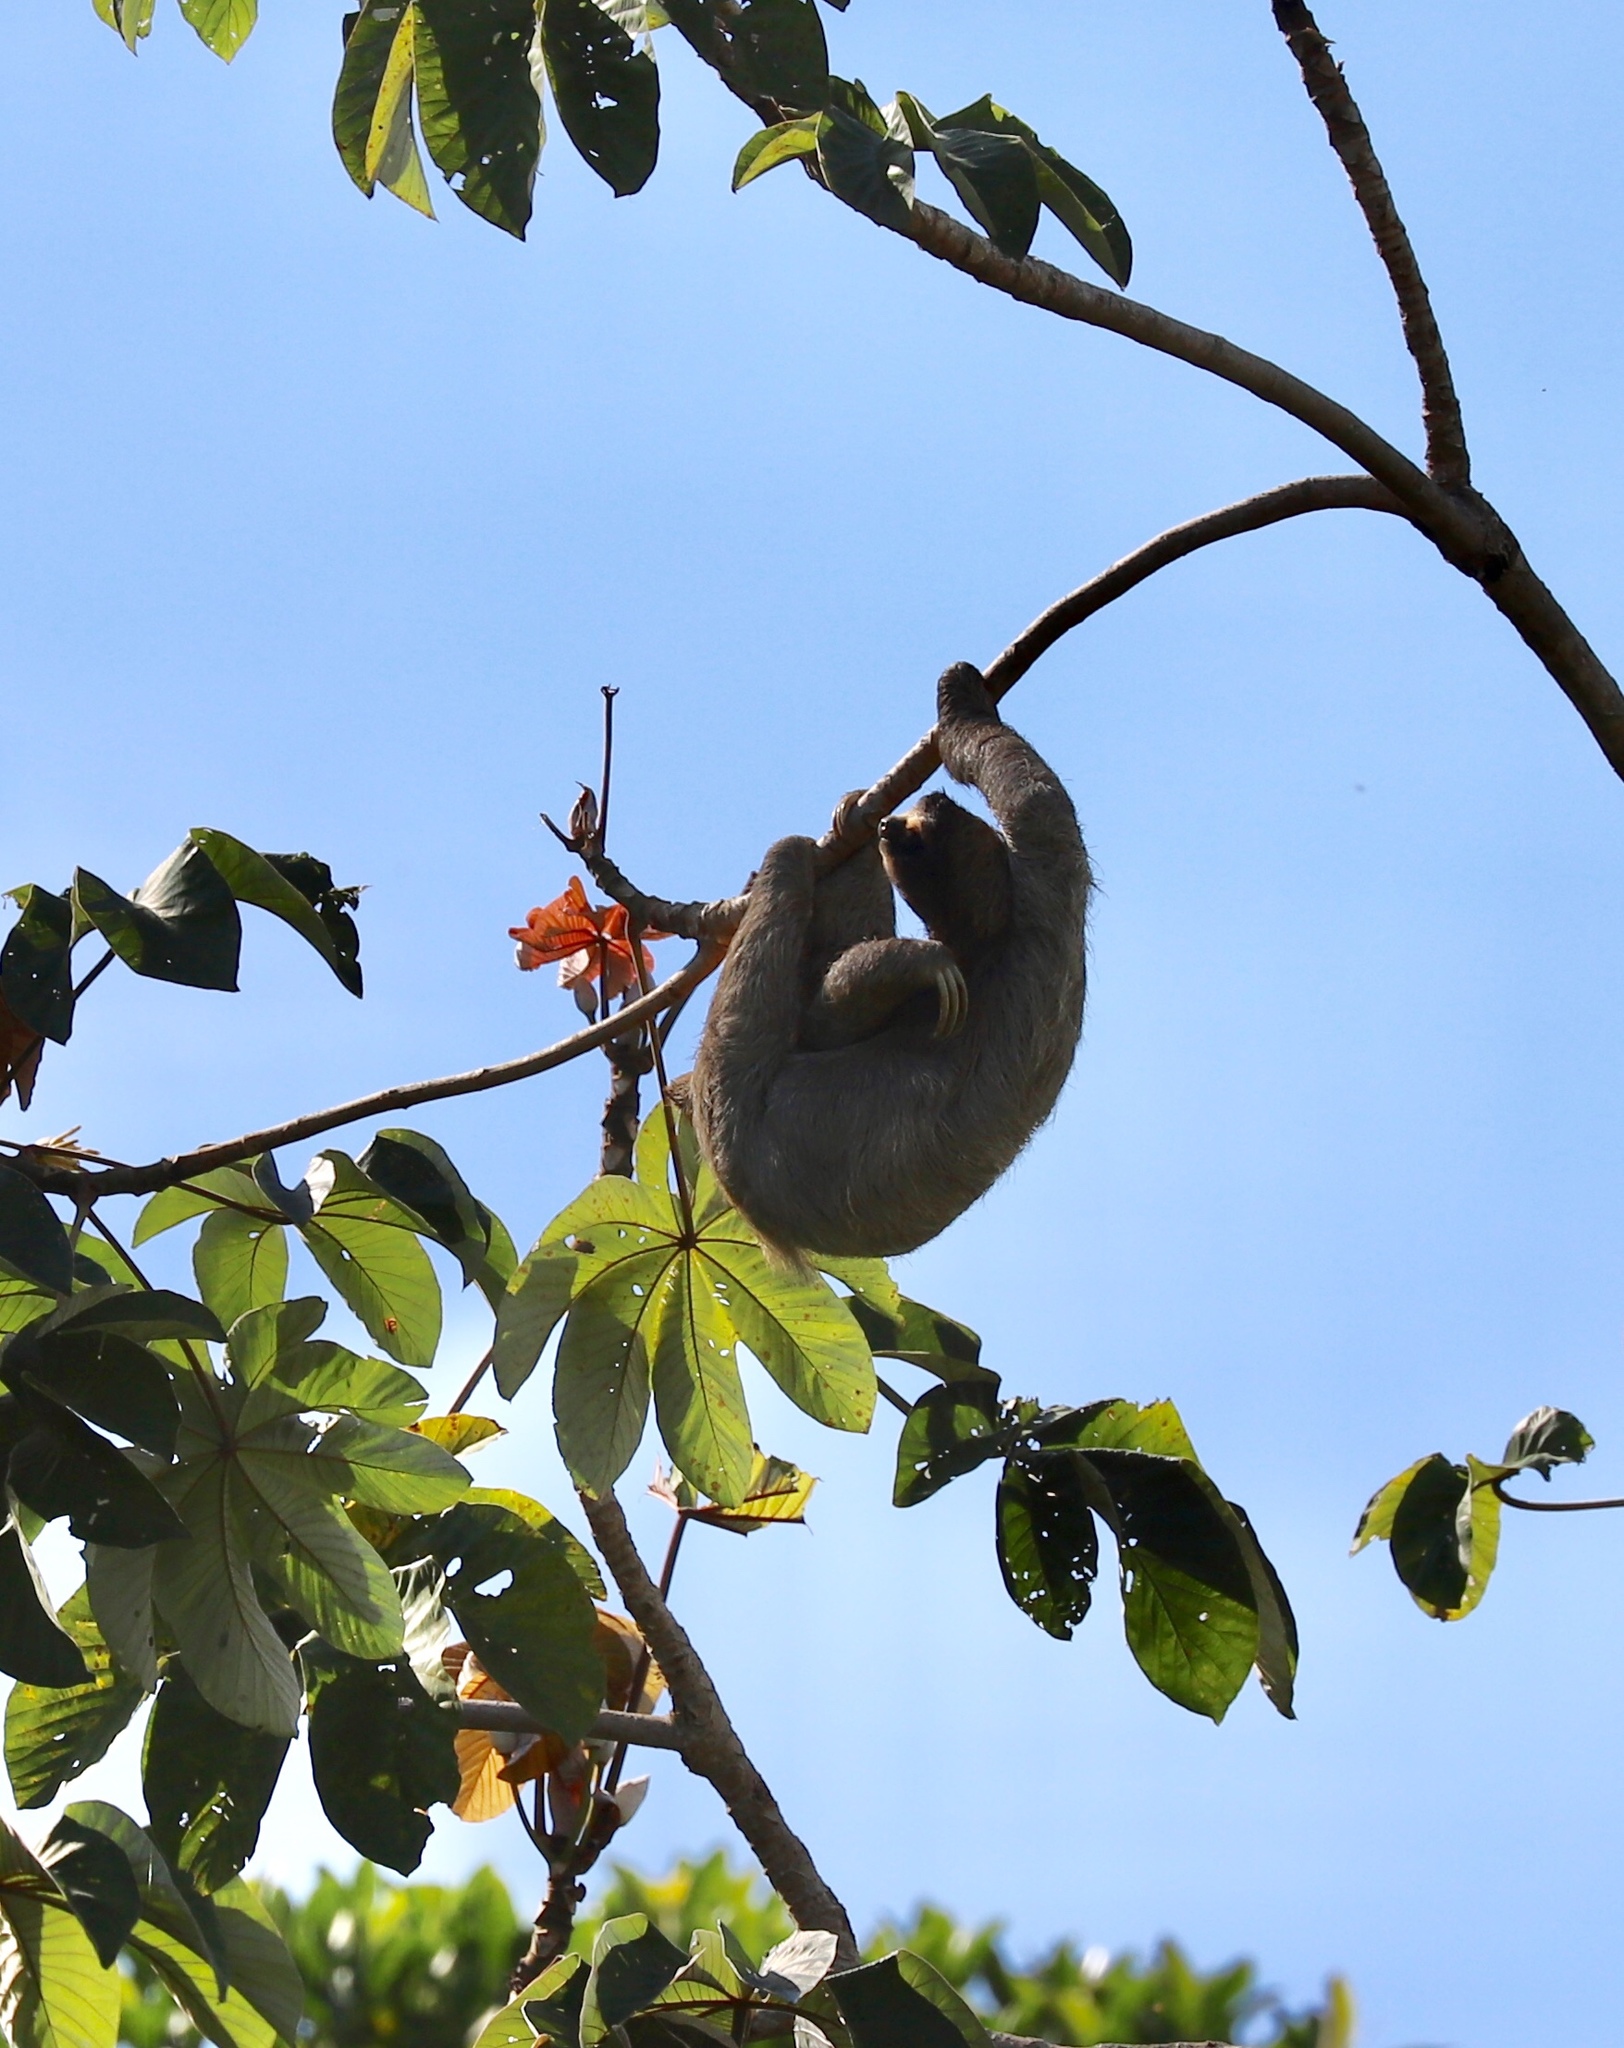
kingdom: Animalia
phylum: Chordata
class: Mammalia
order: Pilosa
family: Bradypodidae
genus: Bradypus
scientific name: Bradypus variegatus
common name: Brown-throated three-toed sloth
